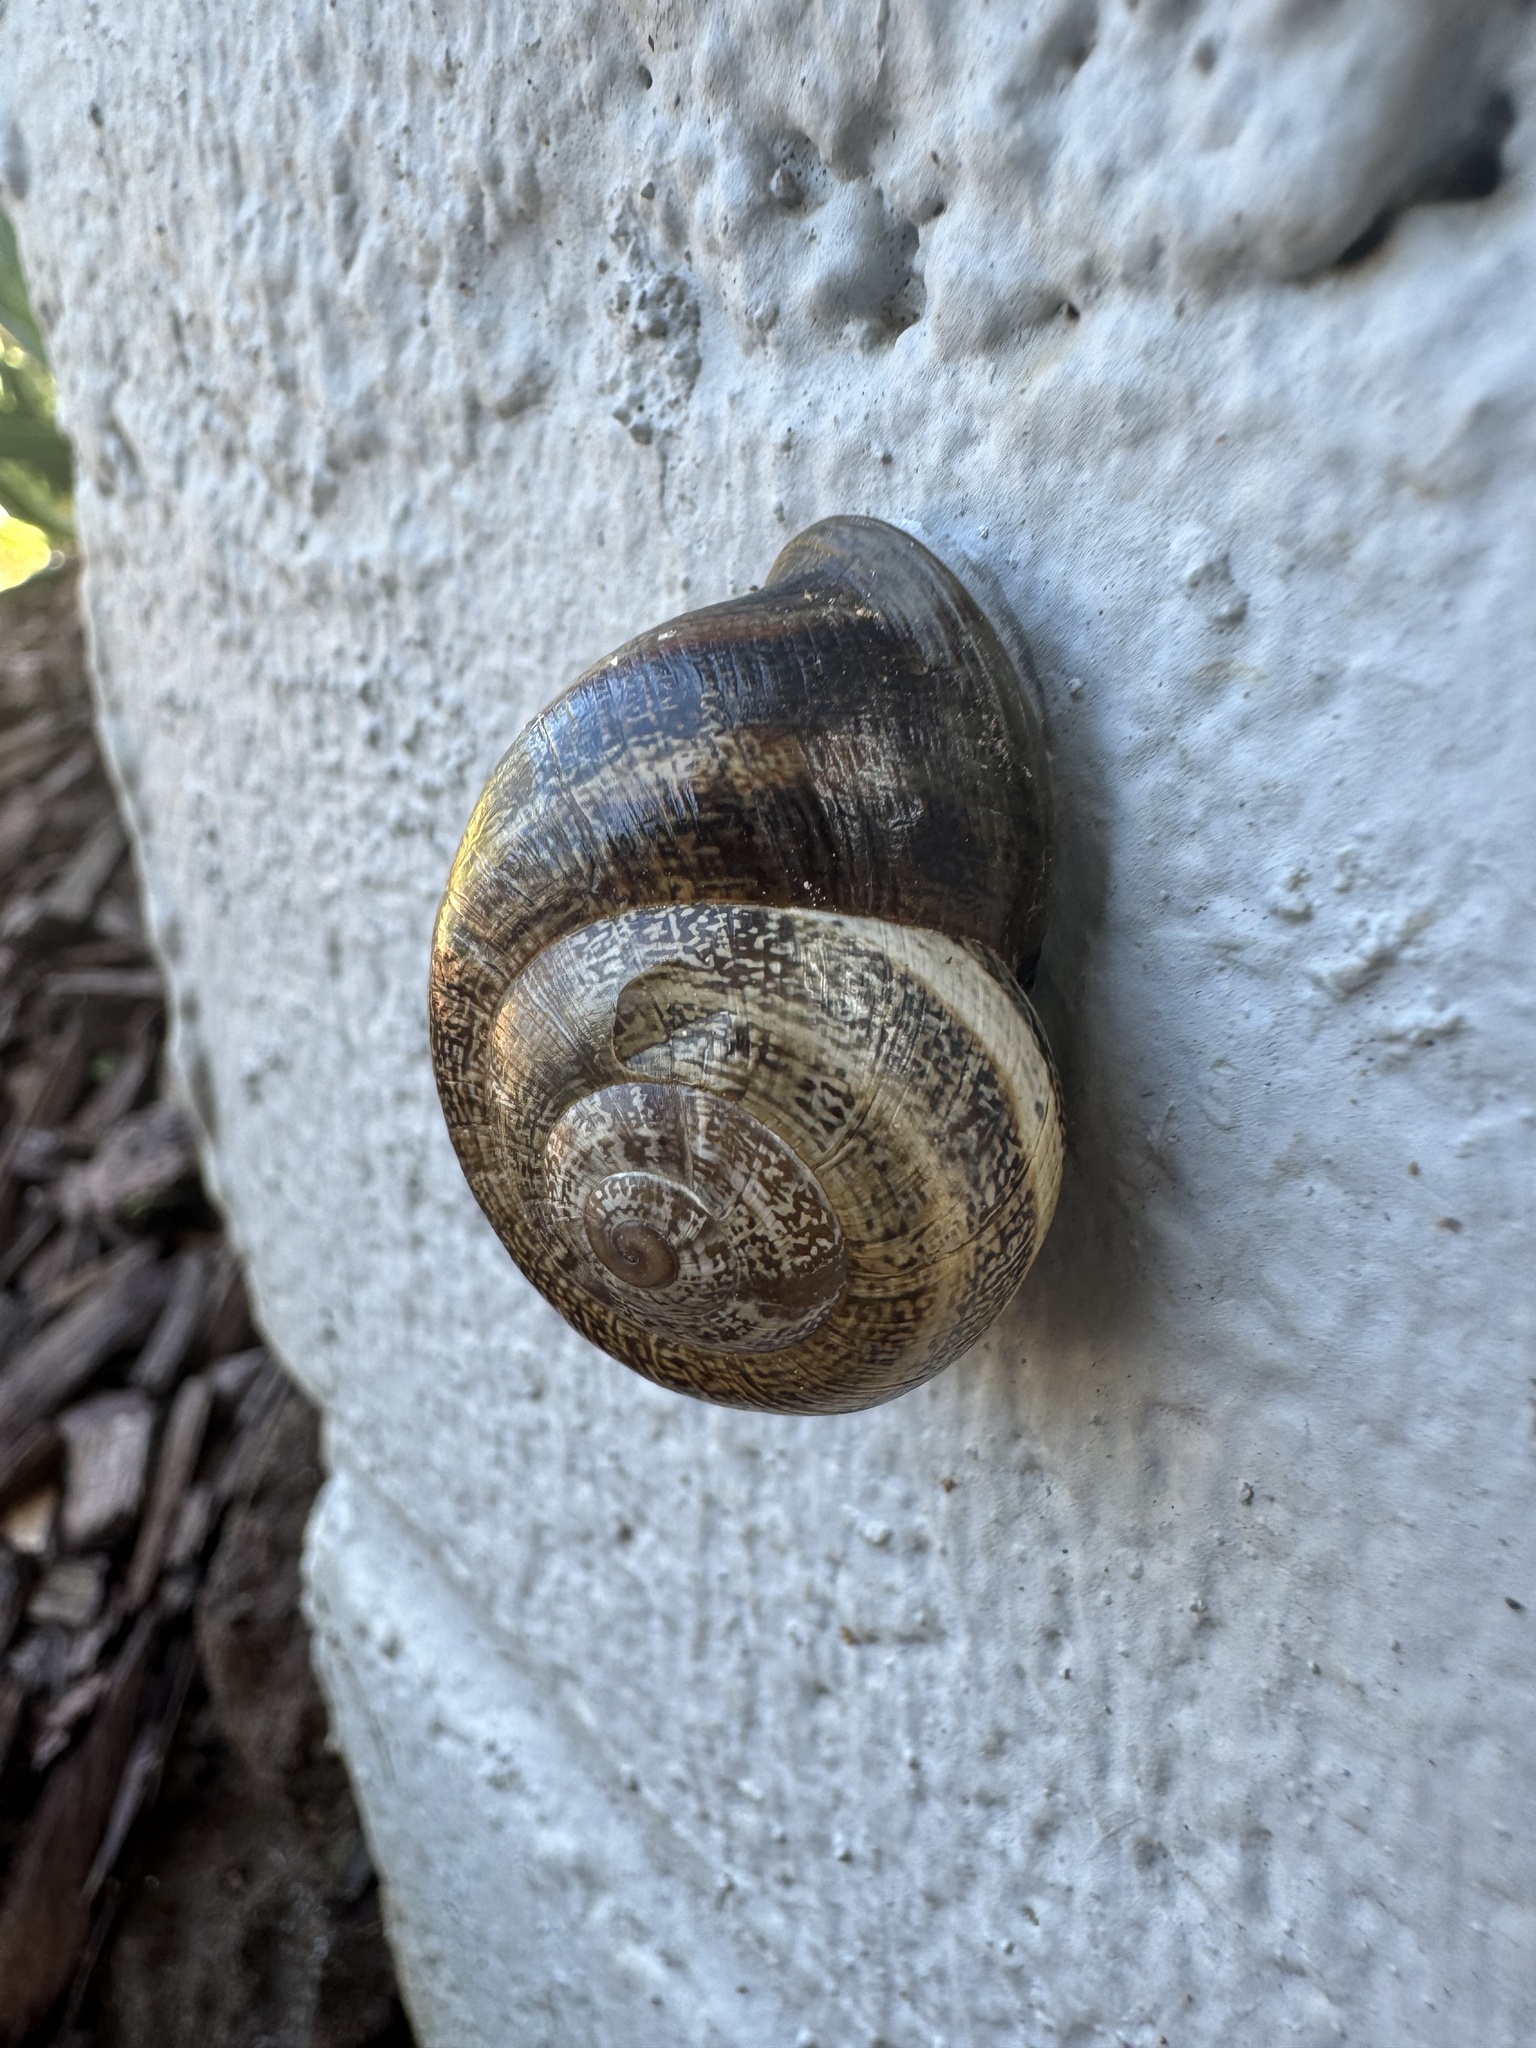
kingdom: Animalia
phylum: Mollusca
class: Gastropoda
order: Stylommatophora
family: Helicidae
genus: Otala
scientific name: Otala lactea
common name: Milk snail
